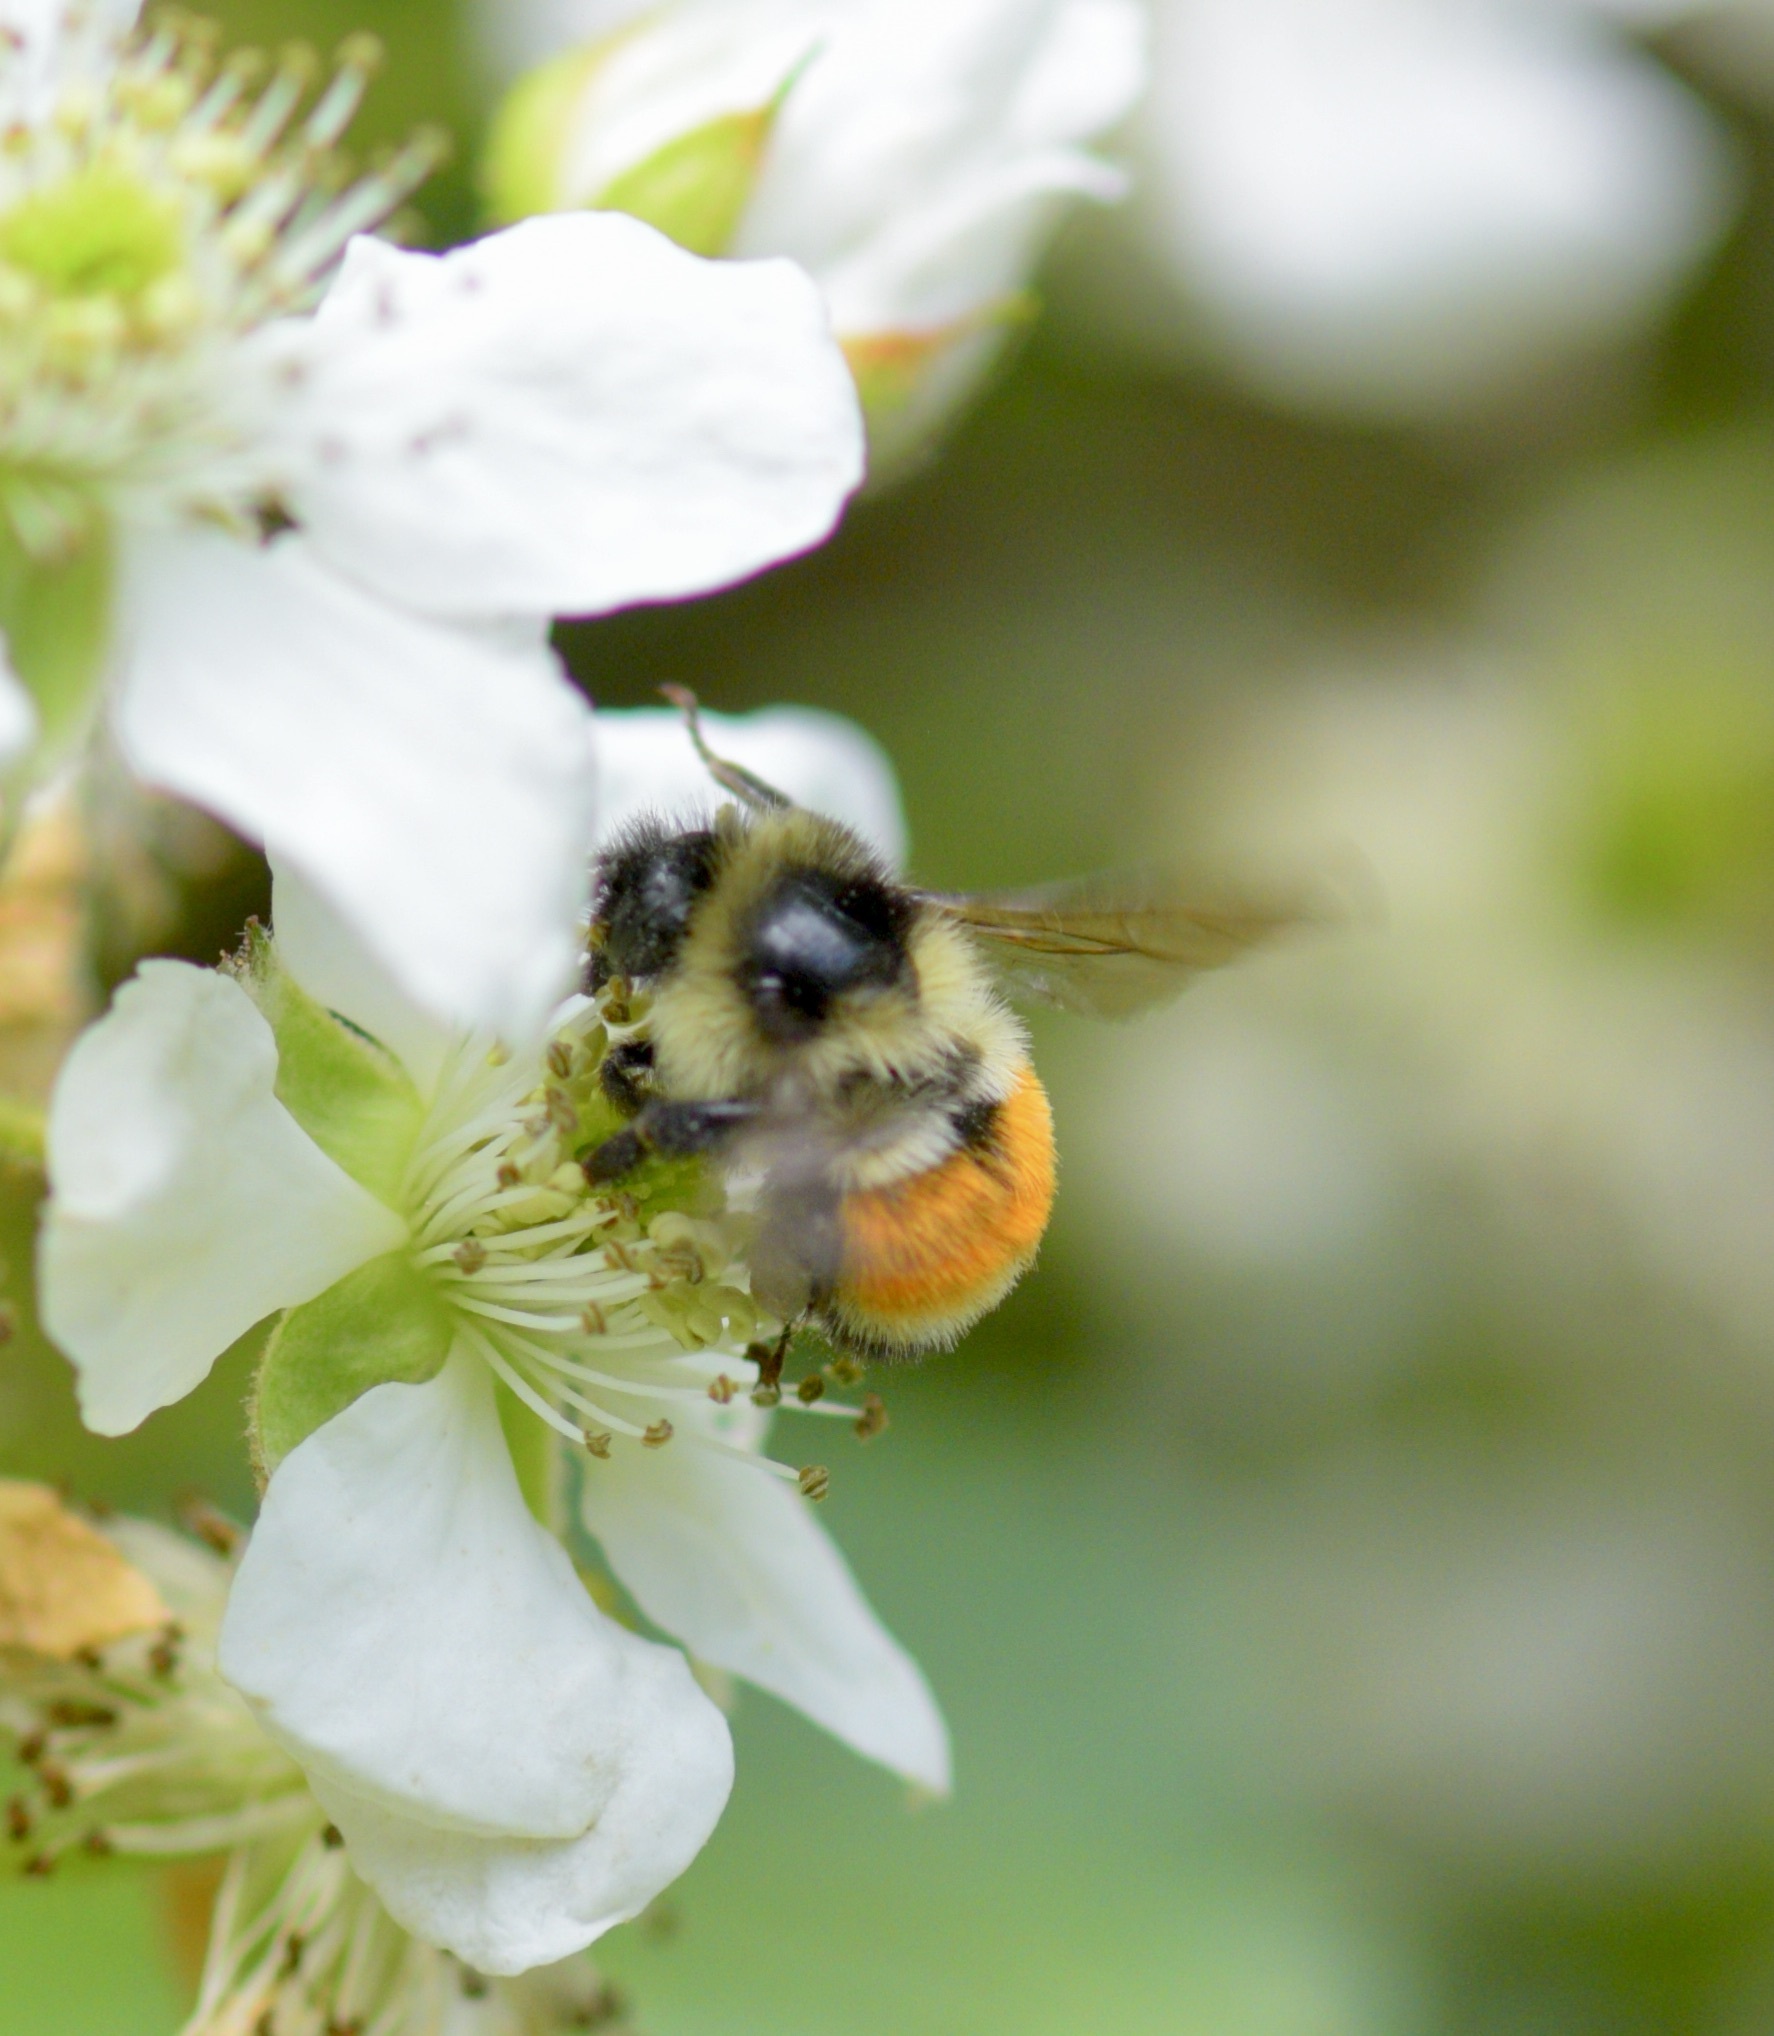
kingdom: Animalia
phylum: Arthropoda
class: Insecta
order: Hymenoptera
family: Apidae
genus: Bombus
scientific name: Bombus ternarius
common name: Tri-colored bumble bee
